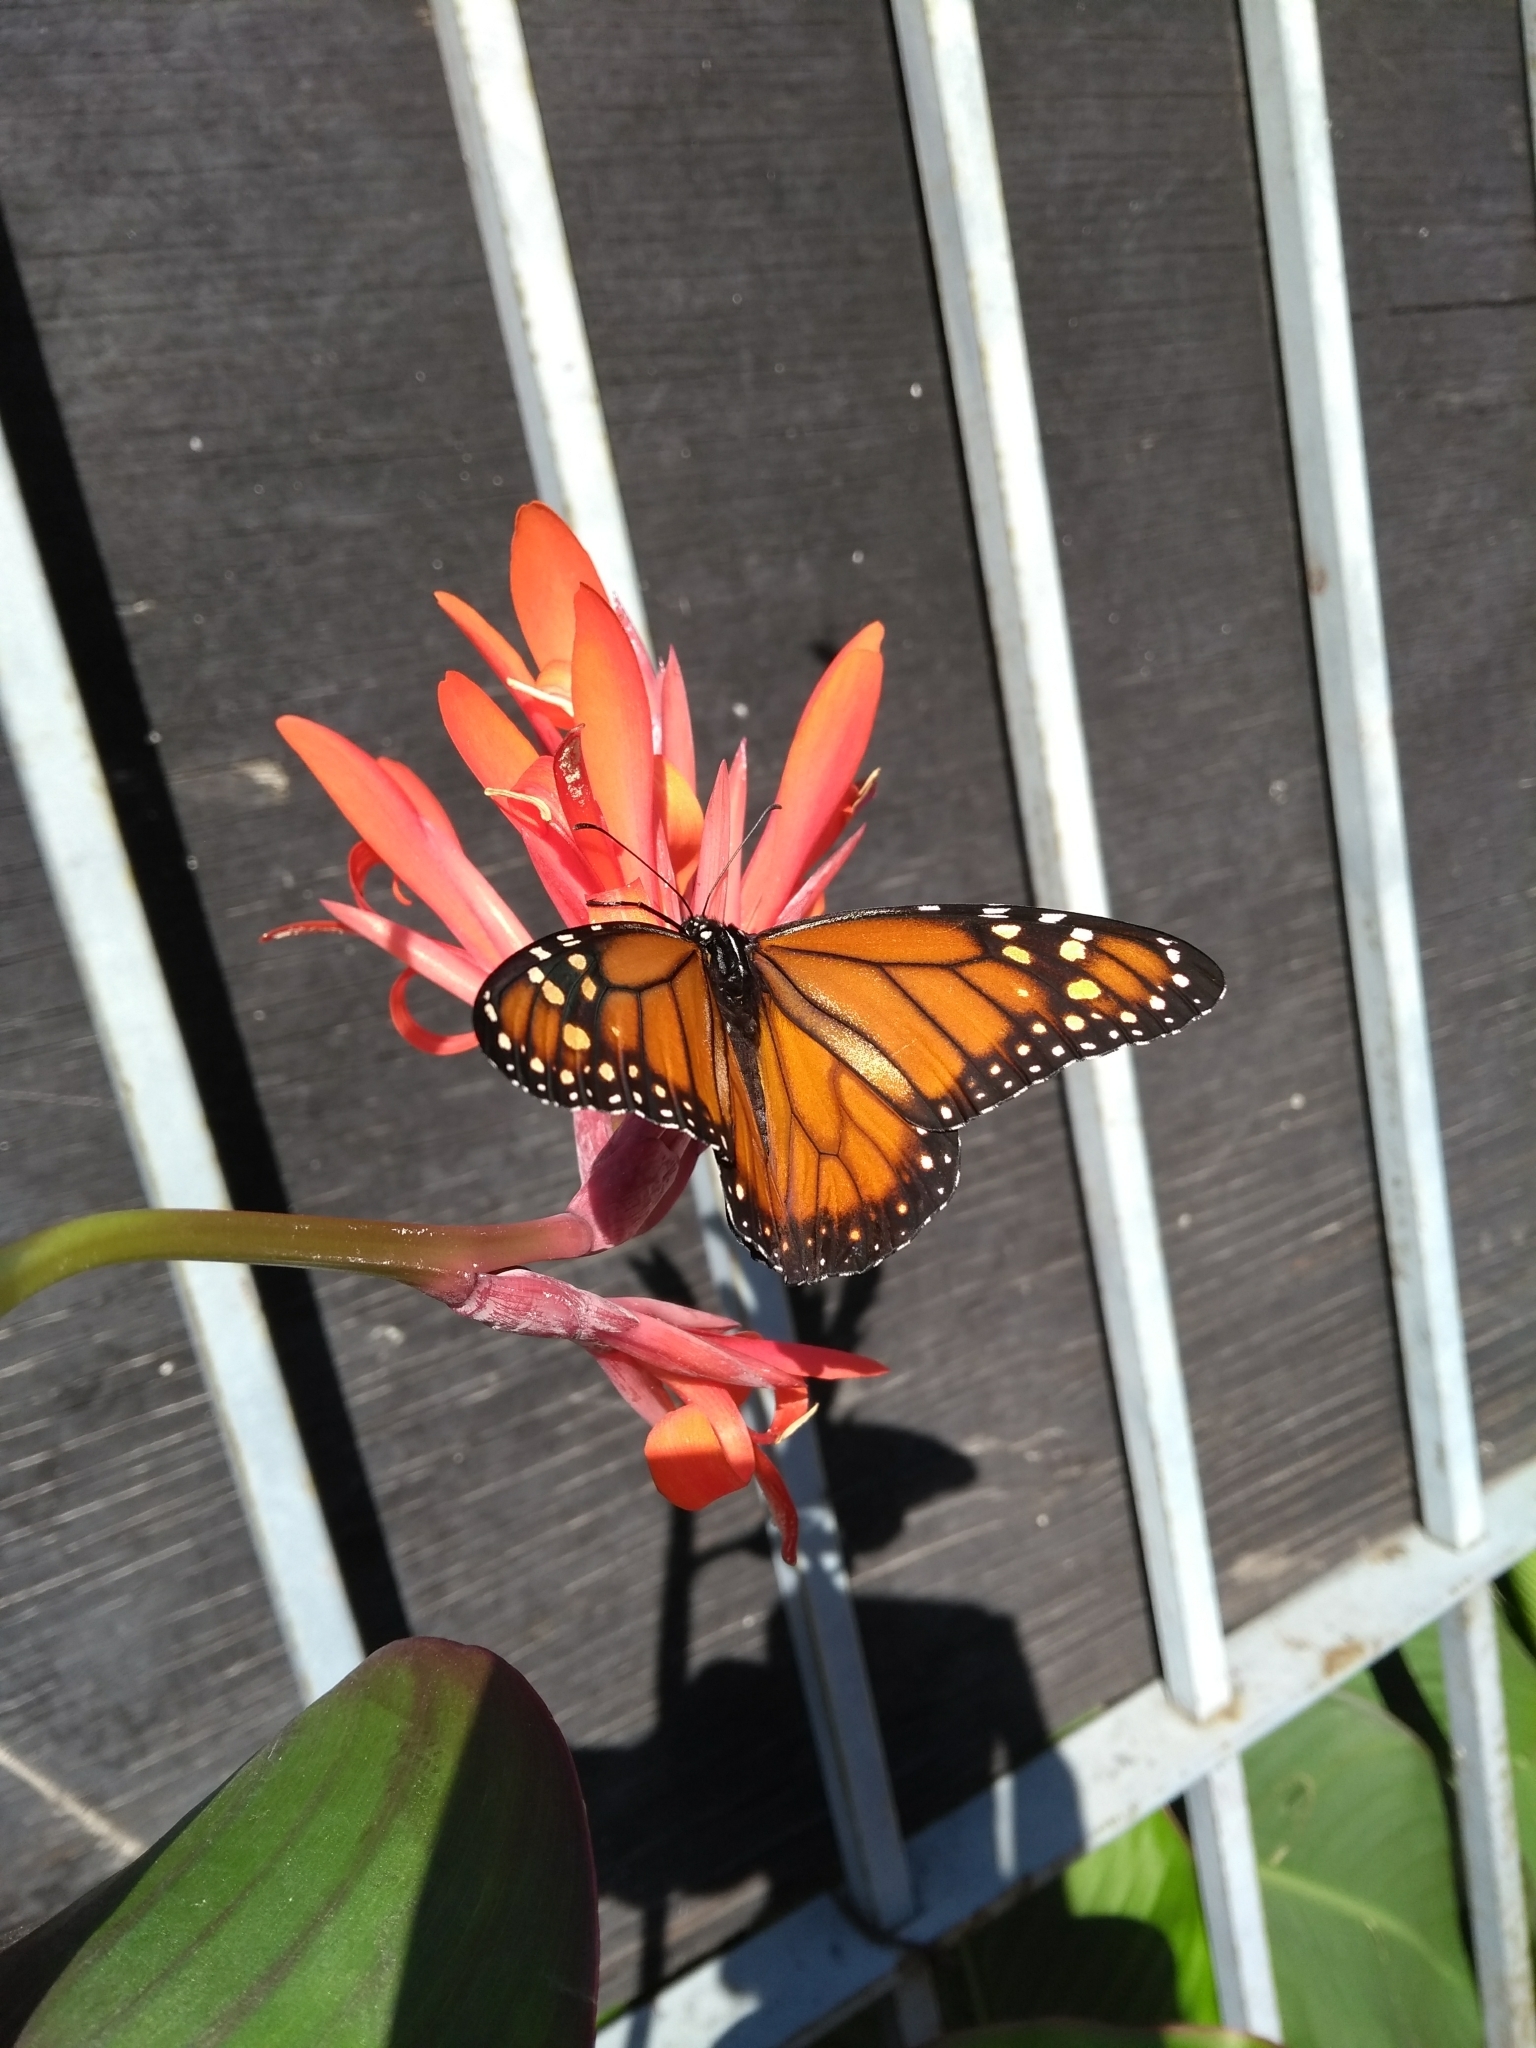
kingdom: Animalia
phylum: Arthropoda
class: Insecta
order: Lepidoptera
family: Nymphalidae
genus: Danaus
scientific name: Danaus erippus
